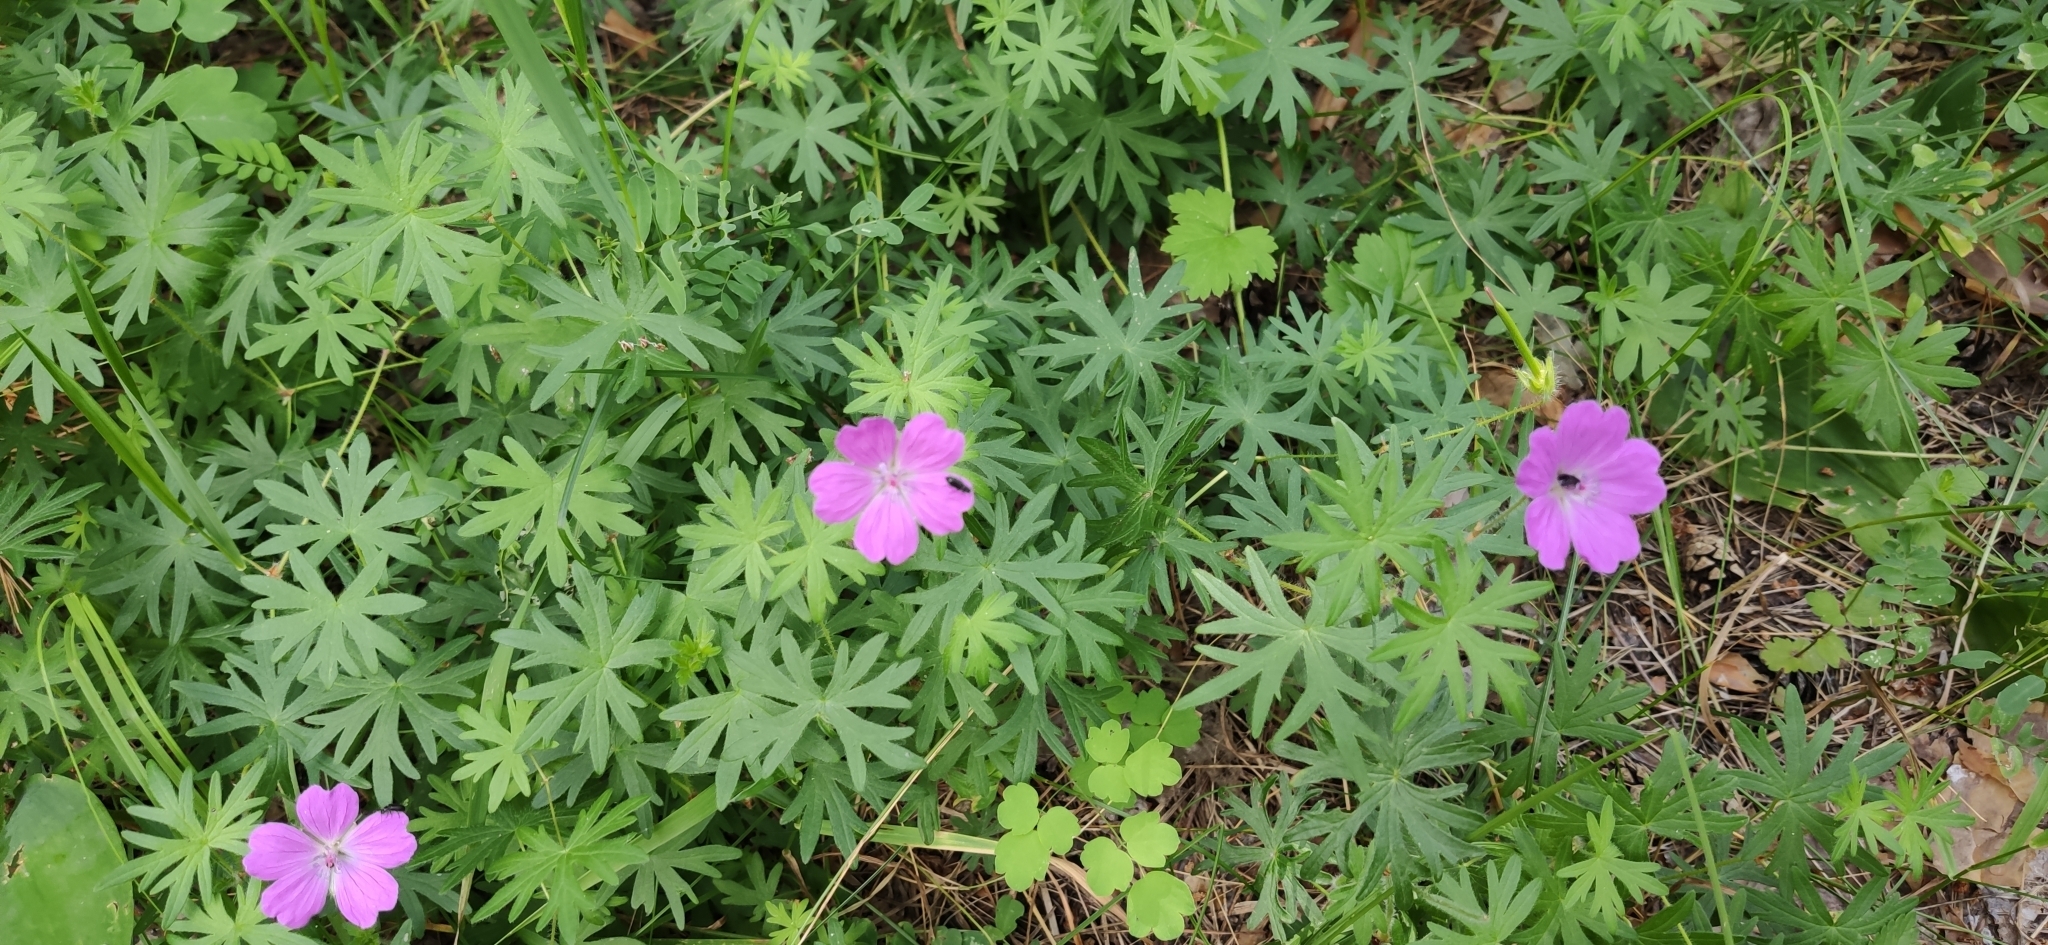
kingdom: Plantae
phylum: Tracheophyta
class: Magnoliopsida
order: Geraniales
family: Geraniaceae
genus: Geranium
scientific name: Geranium sanguineum
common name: Bloody crane's-bill
